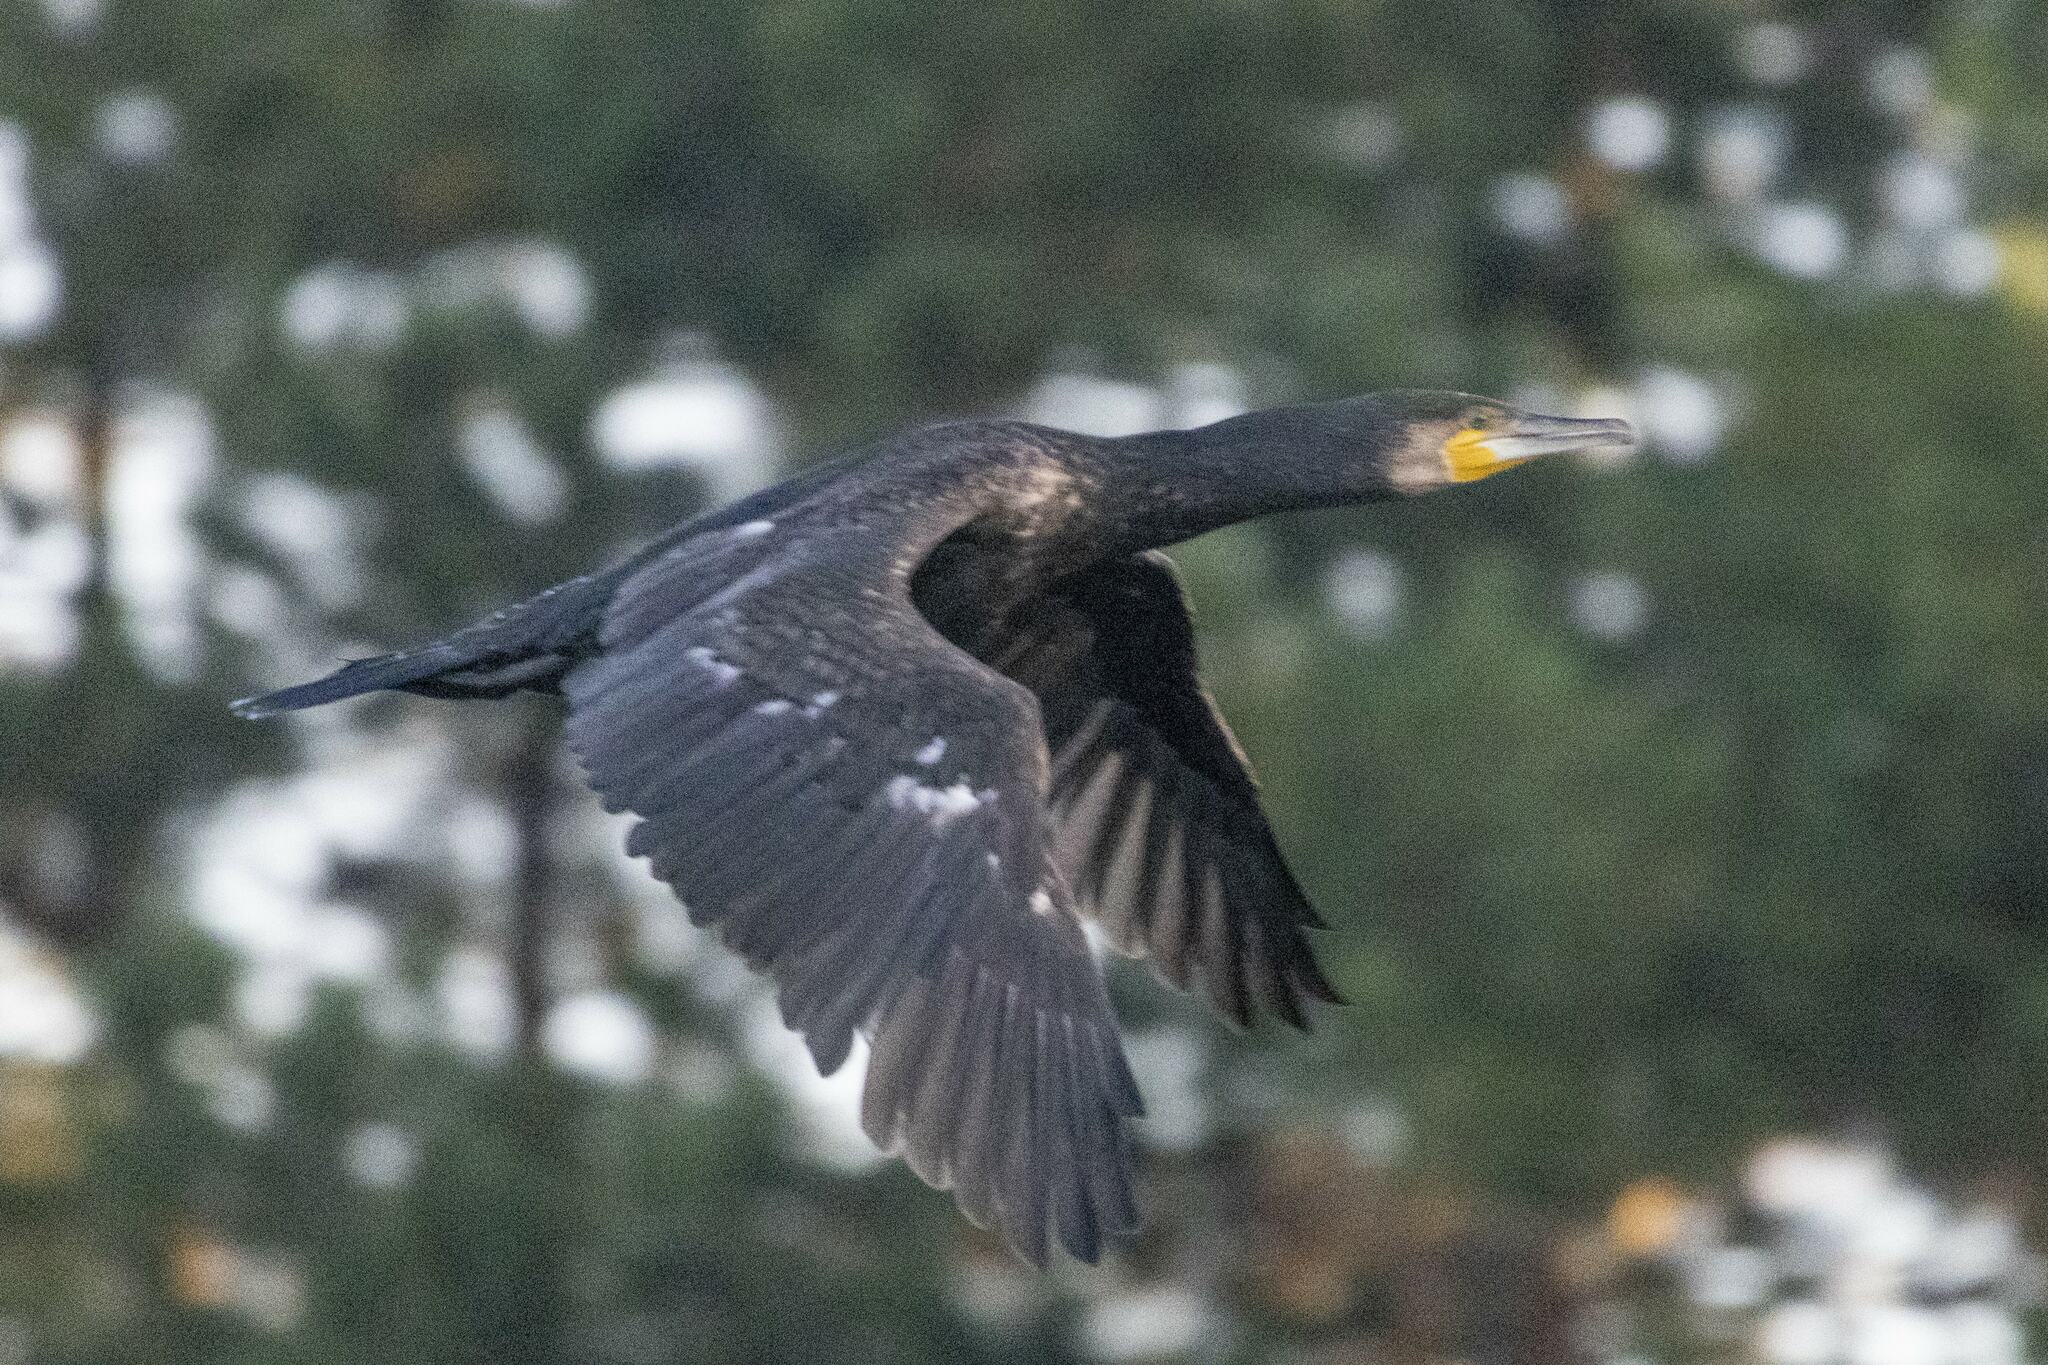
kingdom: Animalia
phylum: Chordata
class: Aves
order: Suliformes
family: Phalacrocoracidae
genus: Phalacrocorax
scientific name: Phalacrocorax carbo
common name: Great cormorant
